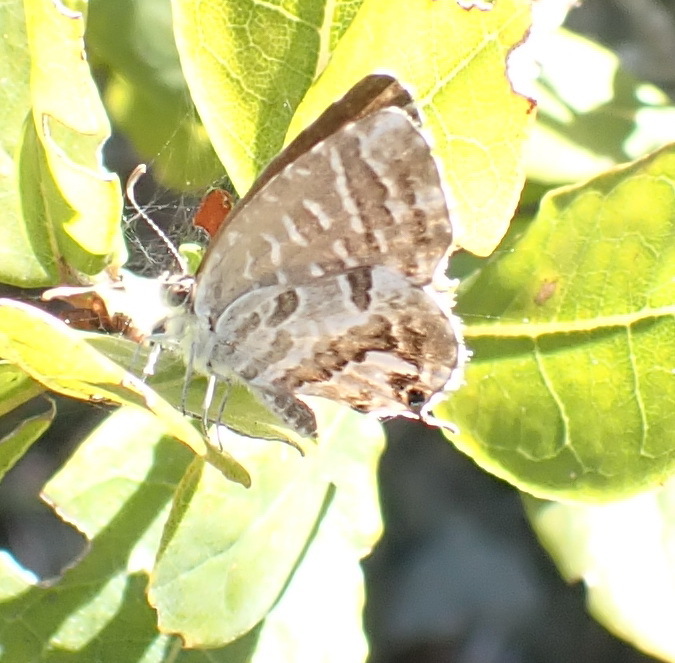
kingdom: Animalia
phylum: Arthropoda
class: Insecta
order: Lepidoptera
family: Lycaenidae
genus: Cacyreus
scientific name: Cacyreus fracta
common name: Water bronze
